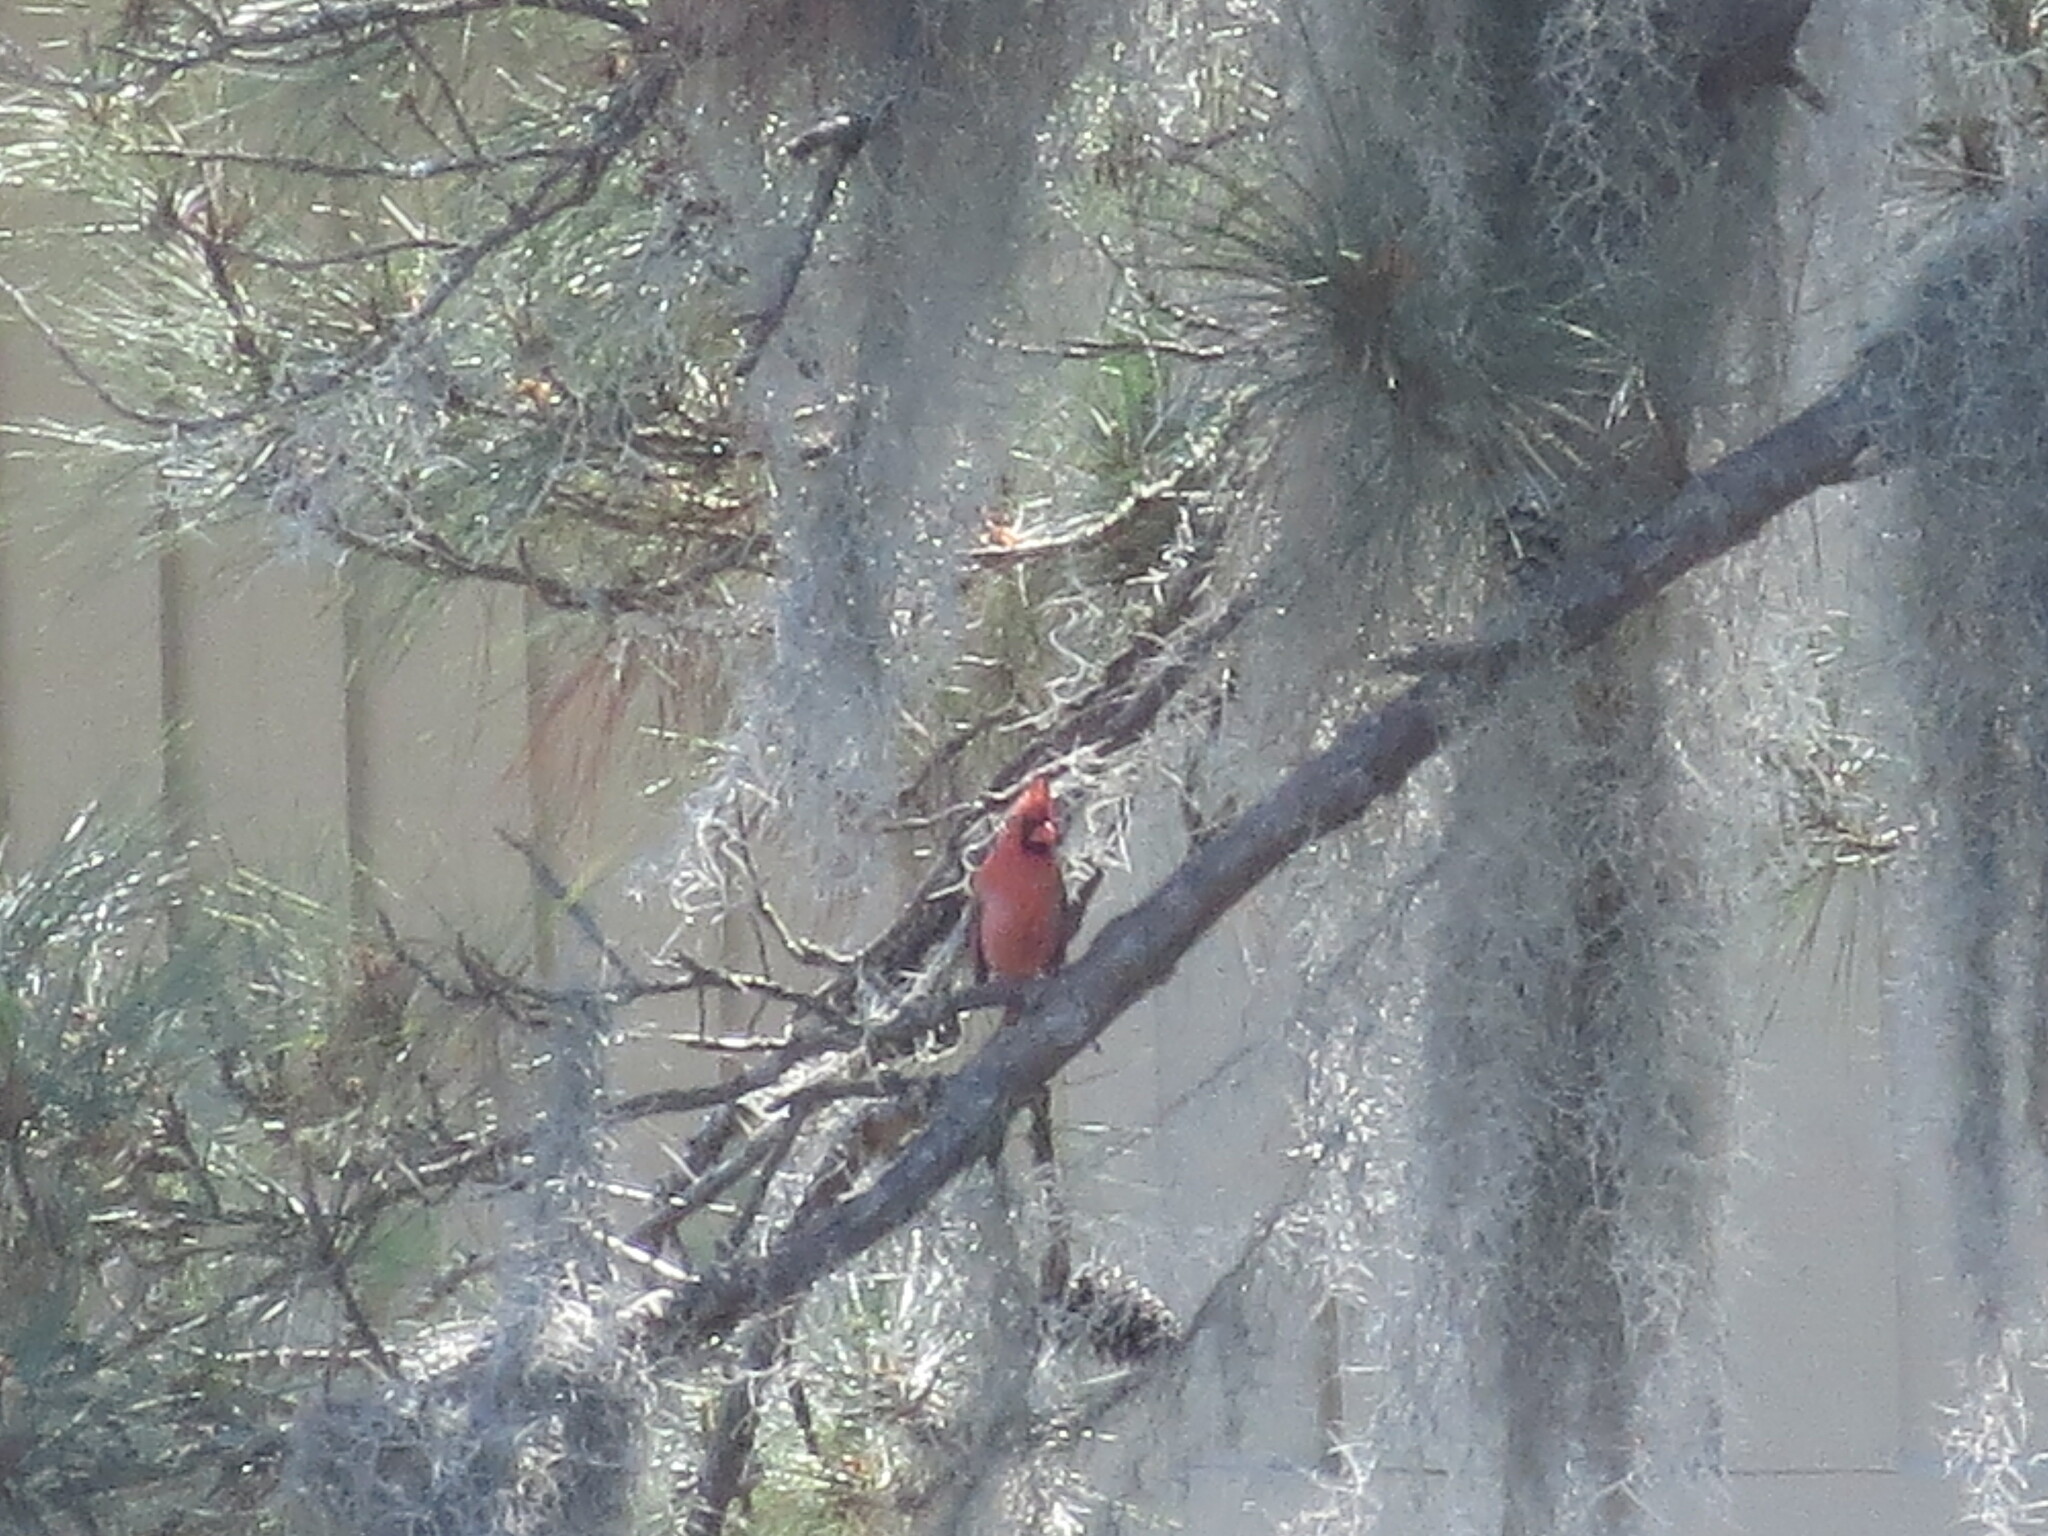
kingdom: Animalia
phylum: Chordata
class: Aves
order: Passeriformes
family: Cardinalidae
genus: Cardinalis
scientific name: Cardinalis cardinalis
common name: Northern cardinal
